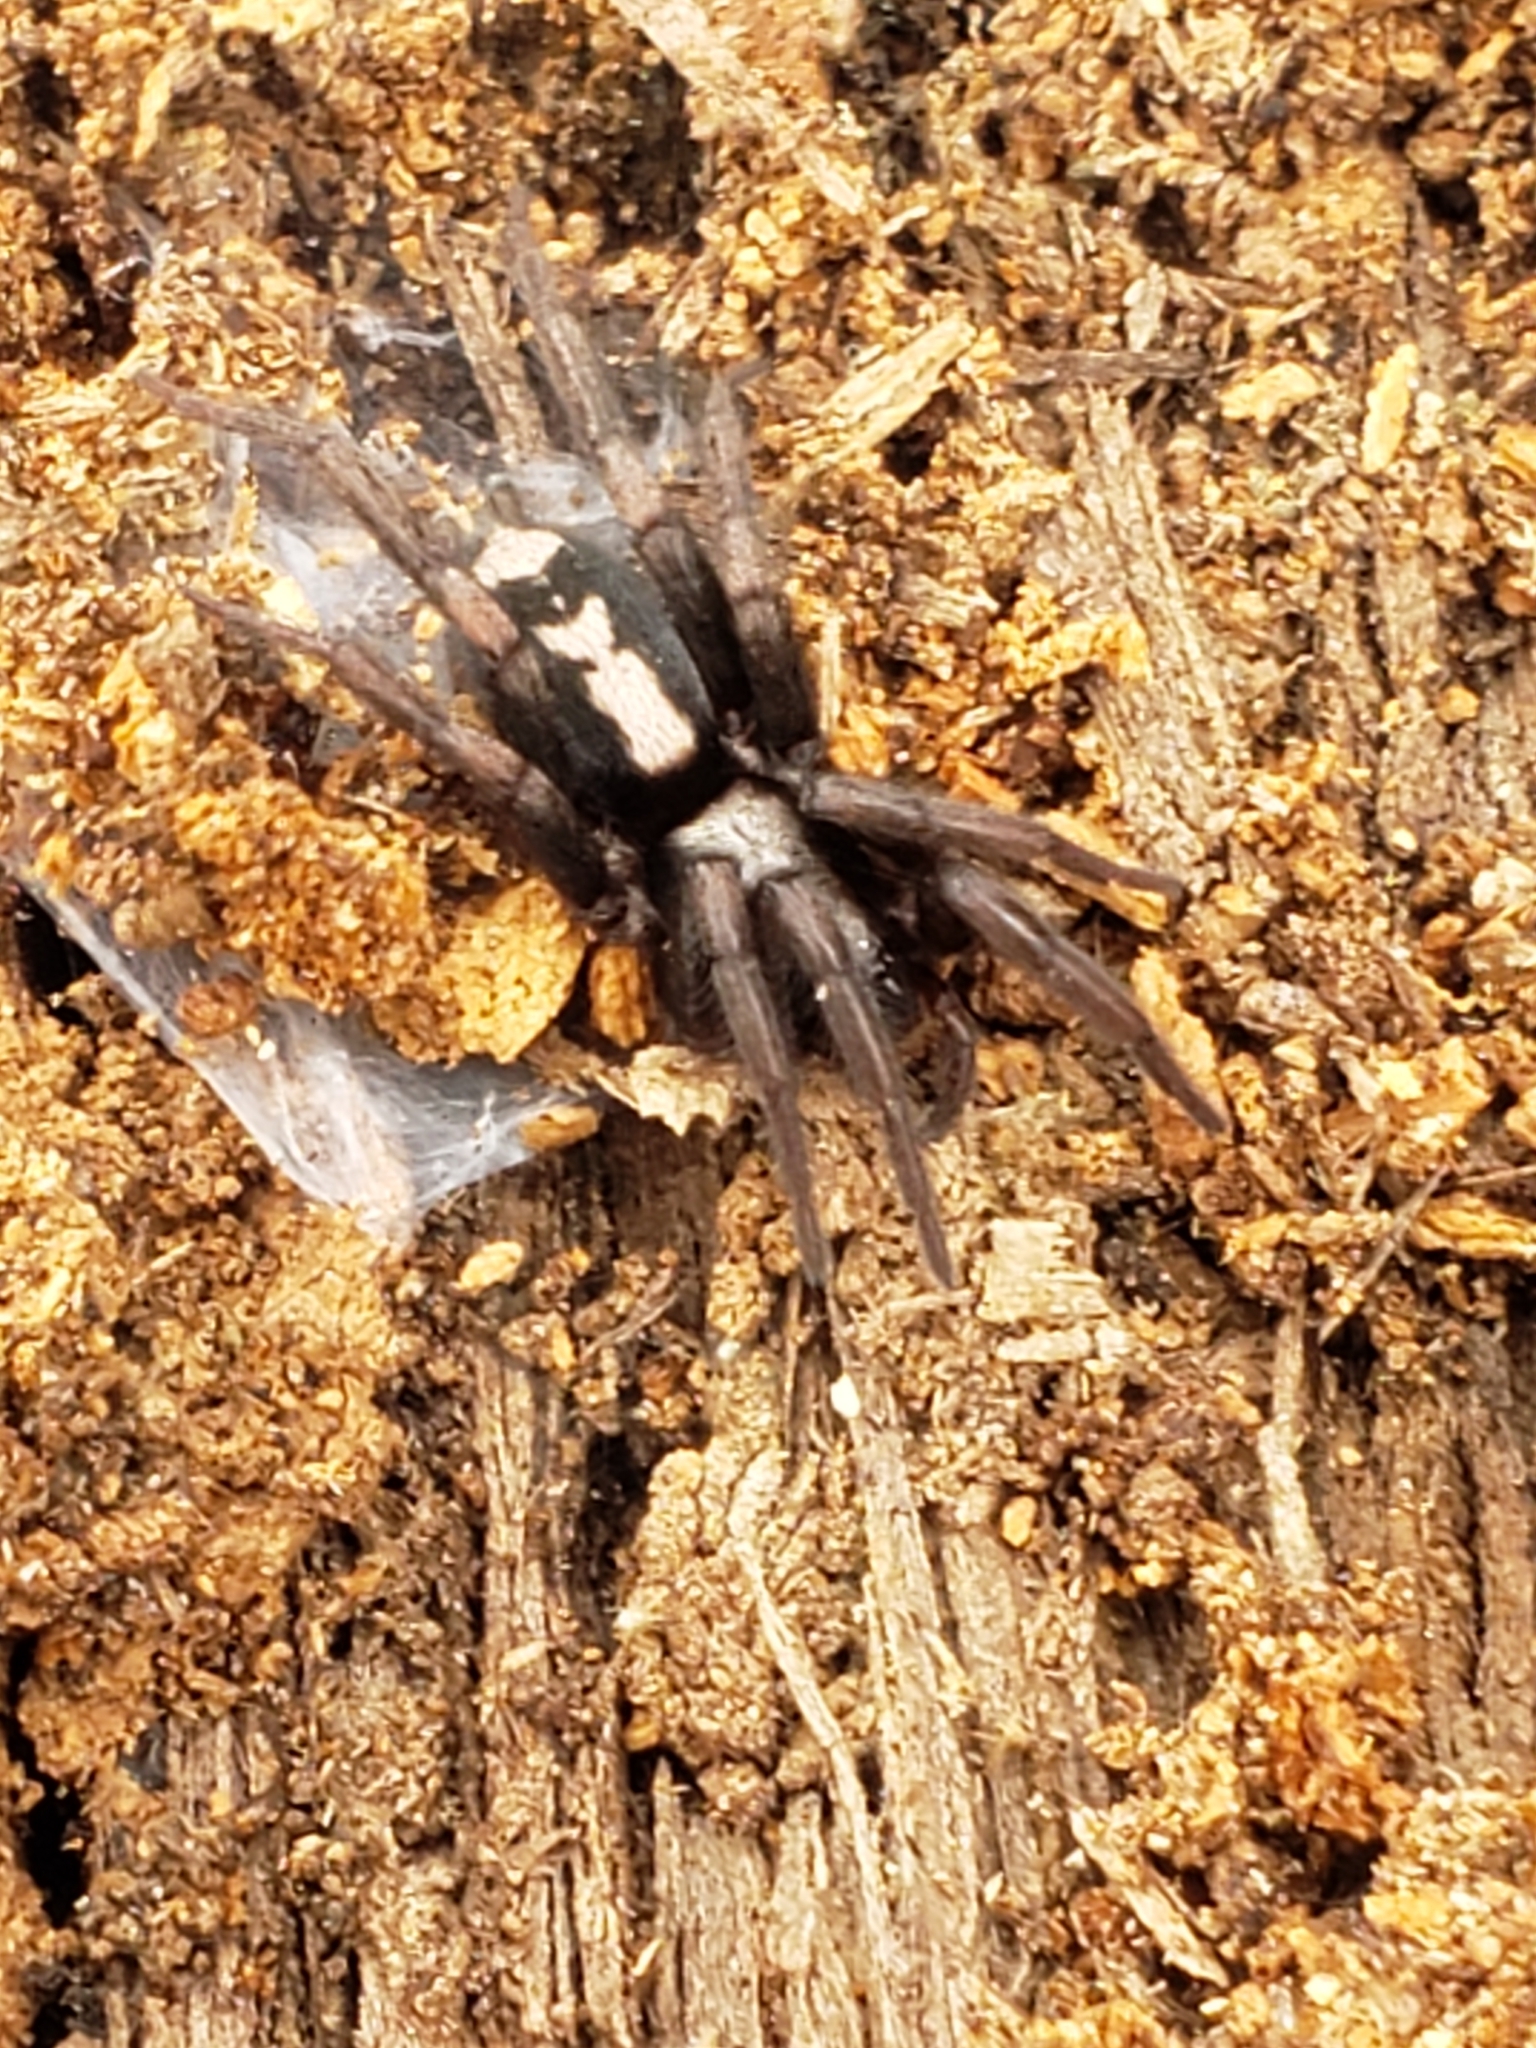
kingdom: Animalia
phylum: Arthropoda
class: Arachnida
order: Araneae
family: Gnaphosidae
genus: Herpyllus
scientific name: Herpyllus ecclesiasticus
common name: Eastern parson spider
